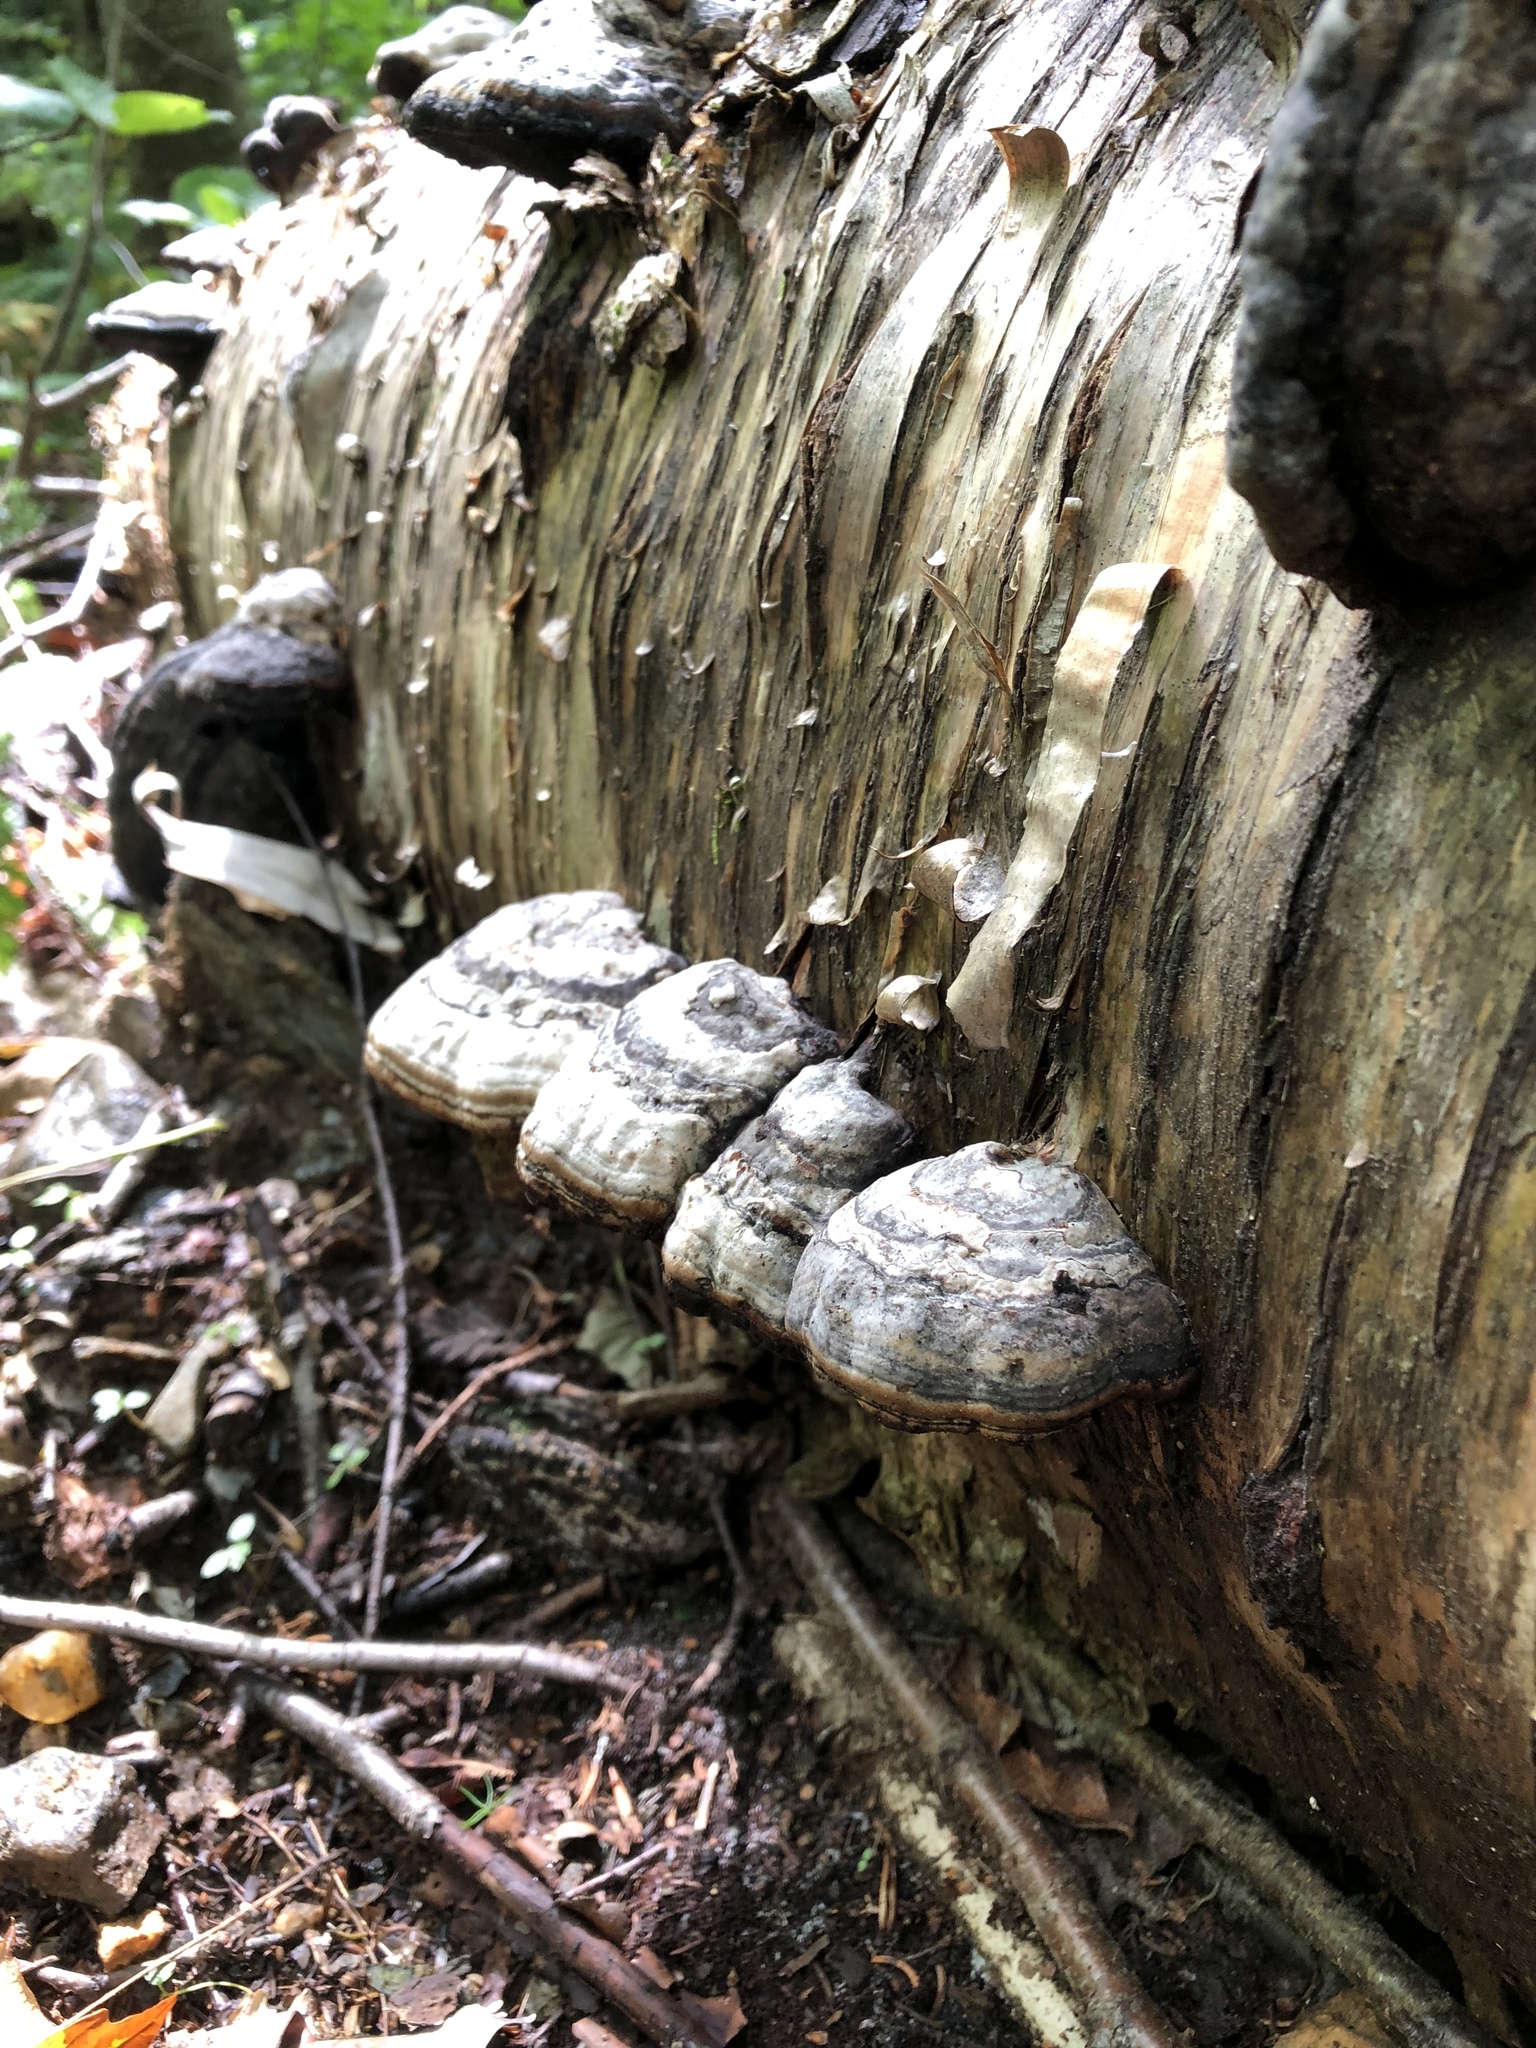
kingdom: Fungi
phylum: Basidiomycota
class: Agaricomycetes
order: Polyporales
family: Polyporaceae
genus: Fomes
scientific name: Fomes fomentarius
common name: Hoof fungus
